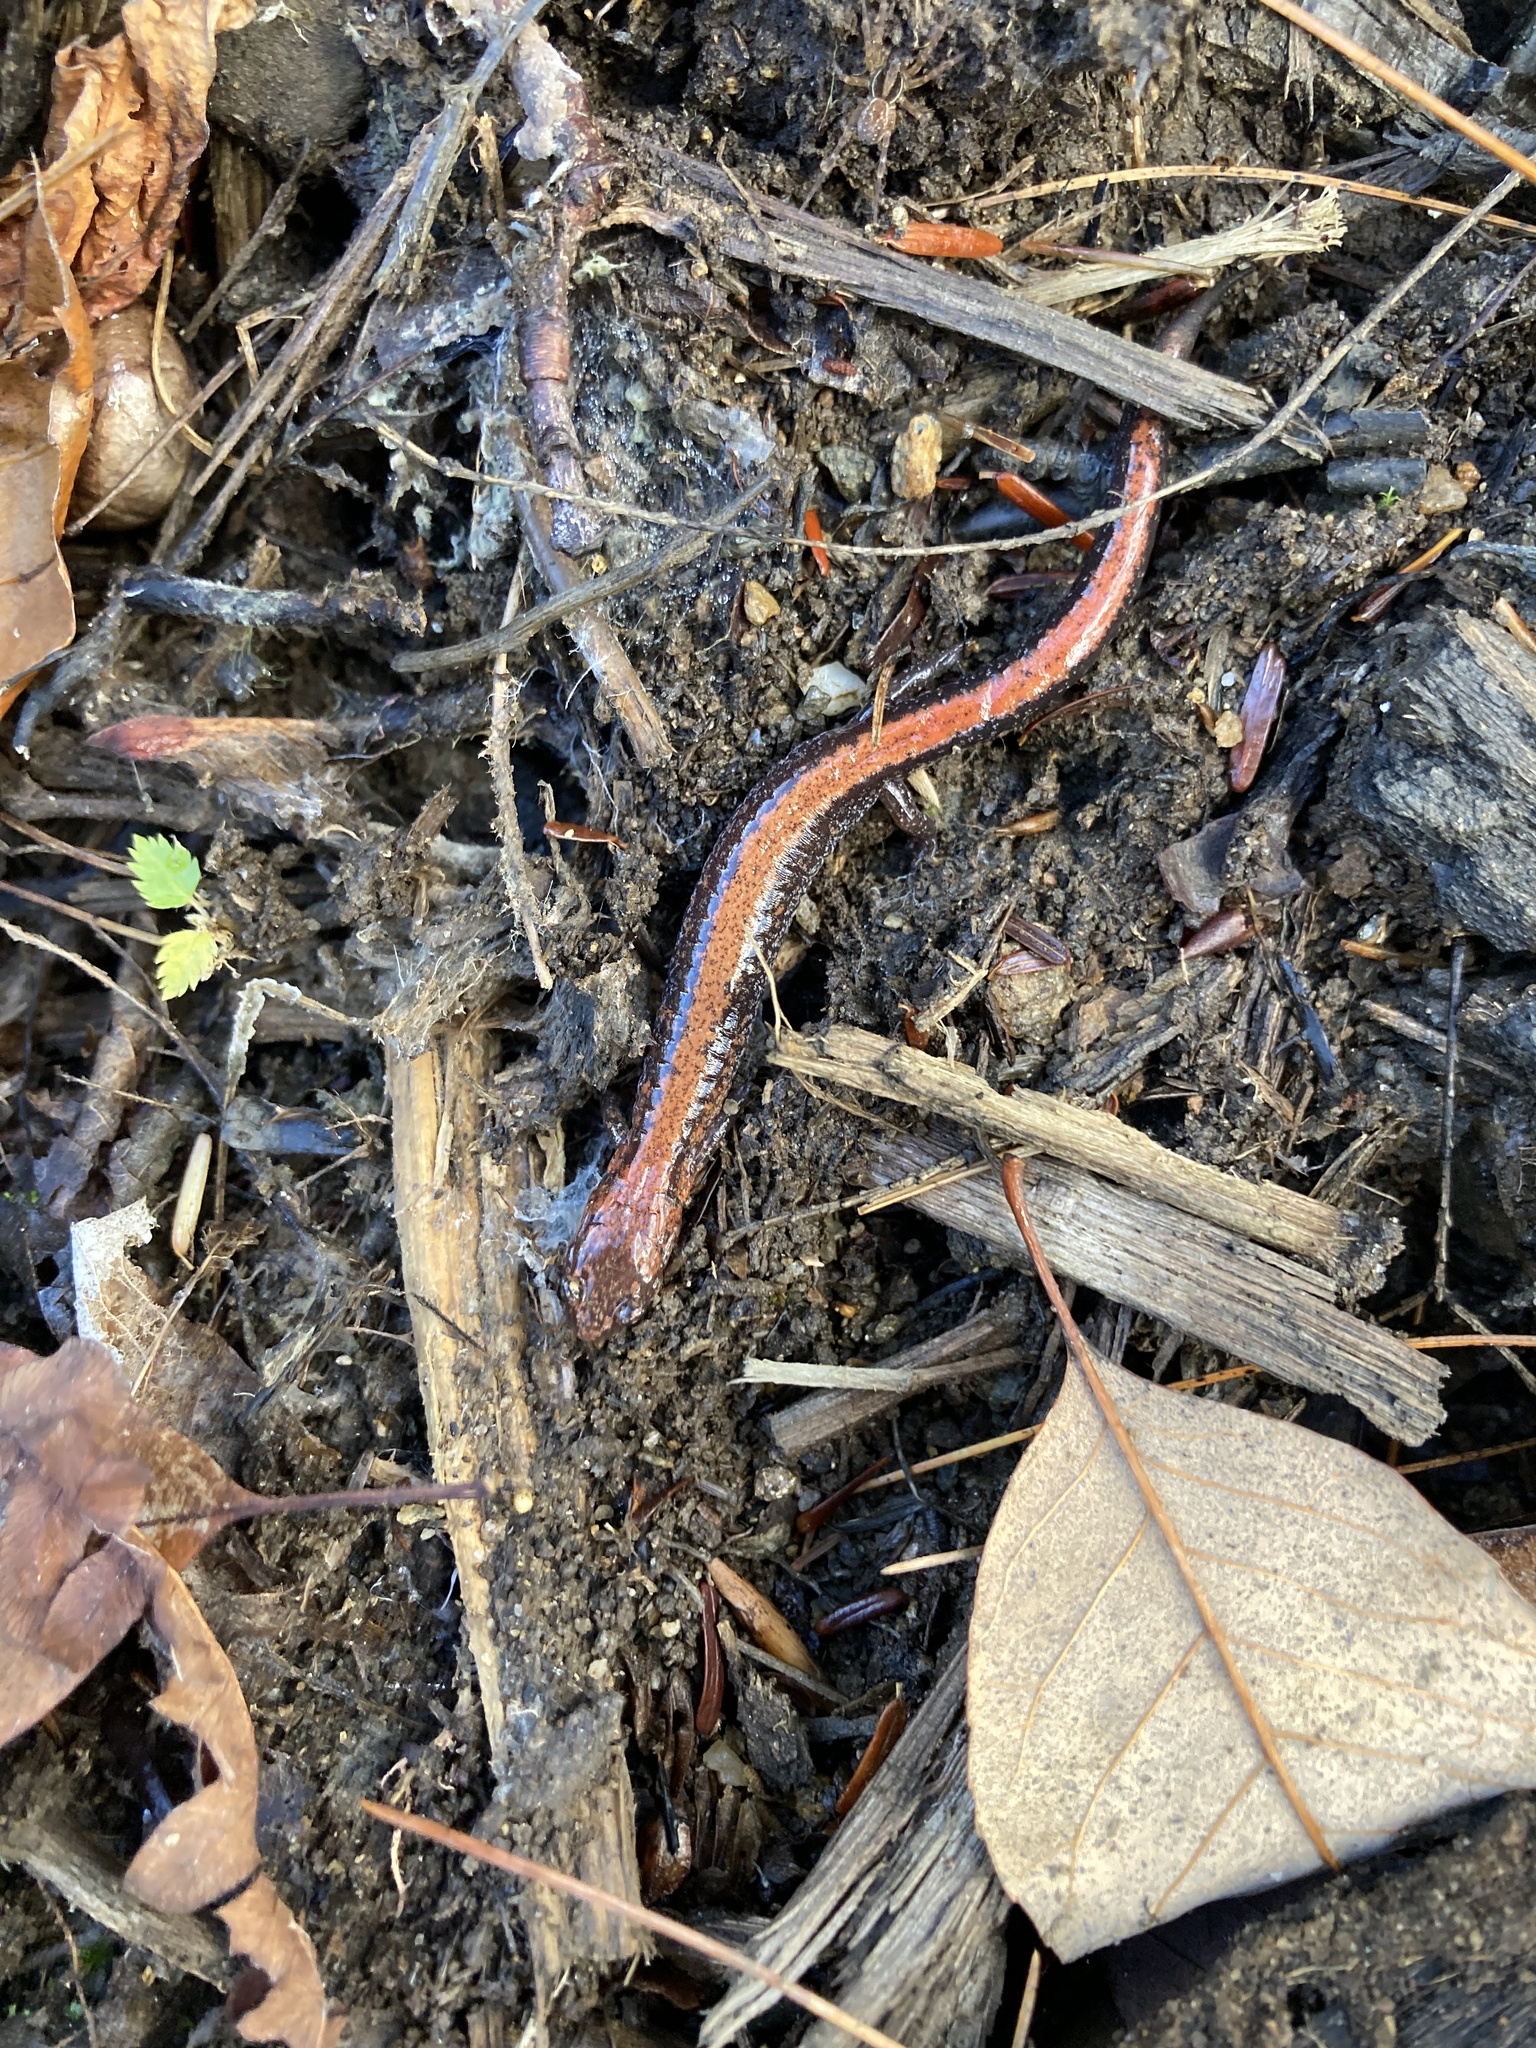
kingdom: Animalia
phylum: Chordata
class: Amphibia
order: Caudata
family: Plethodontidae
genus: Plethodon
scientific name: Plethodon cinereus
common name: Redback salamander
